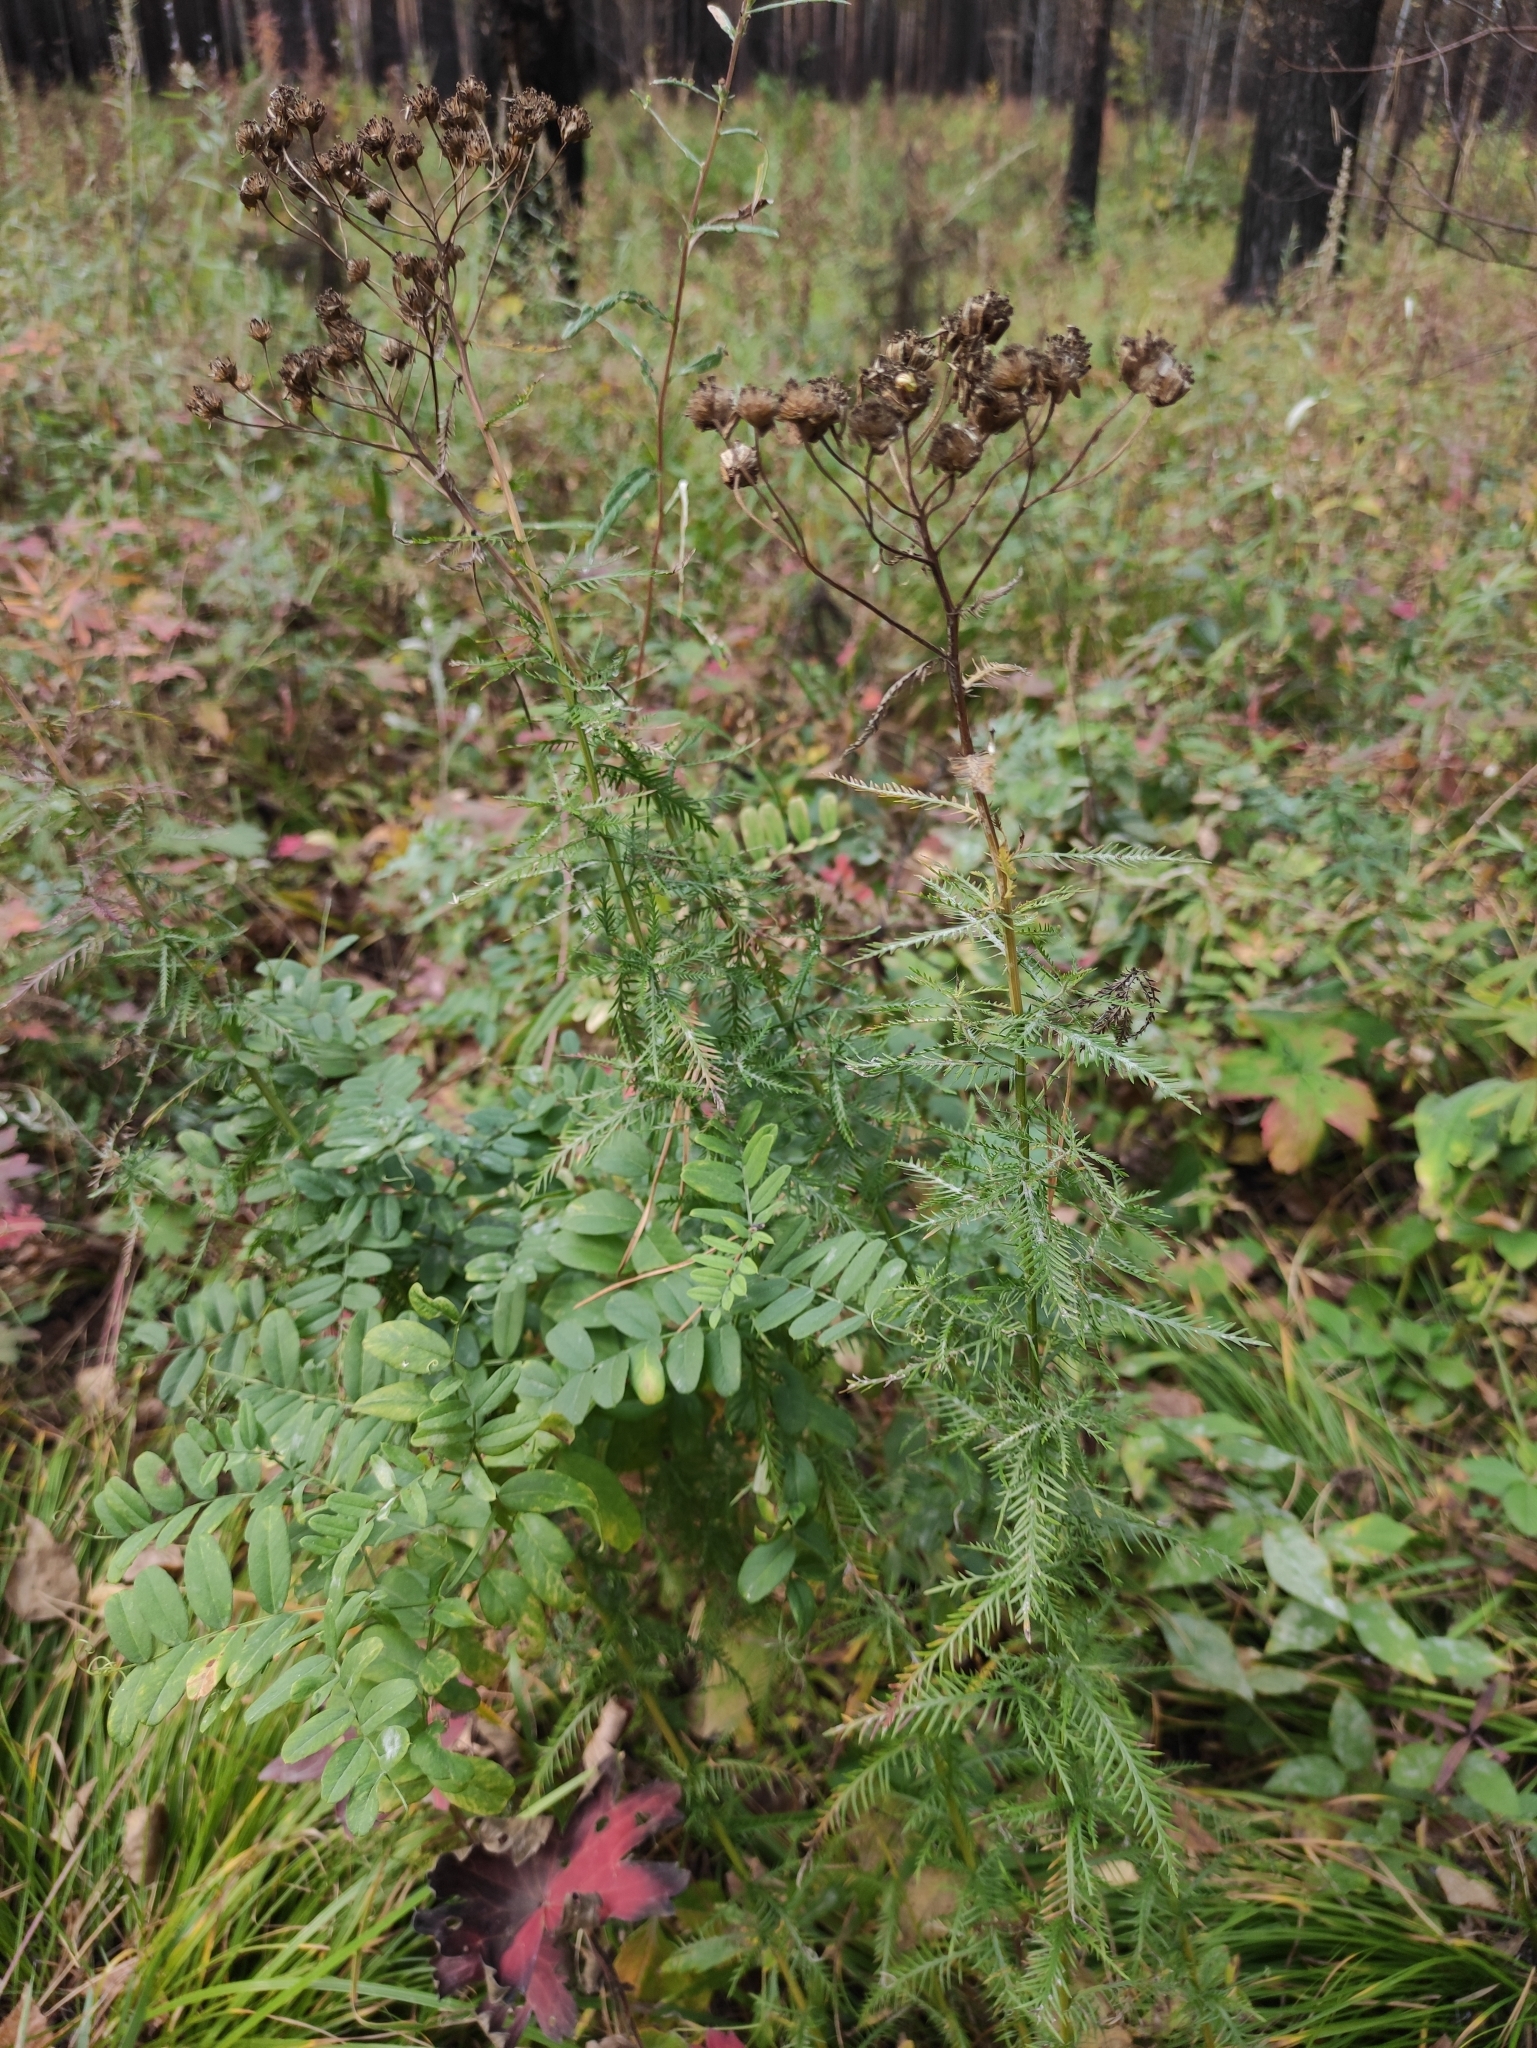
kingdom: Plantae
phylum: Tracheophyta
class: Magnoliopsida
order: Asterales
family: Asteraceae
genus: Achillea
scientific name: Achillea impatiens
